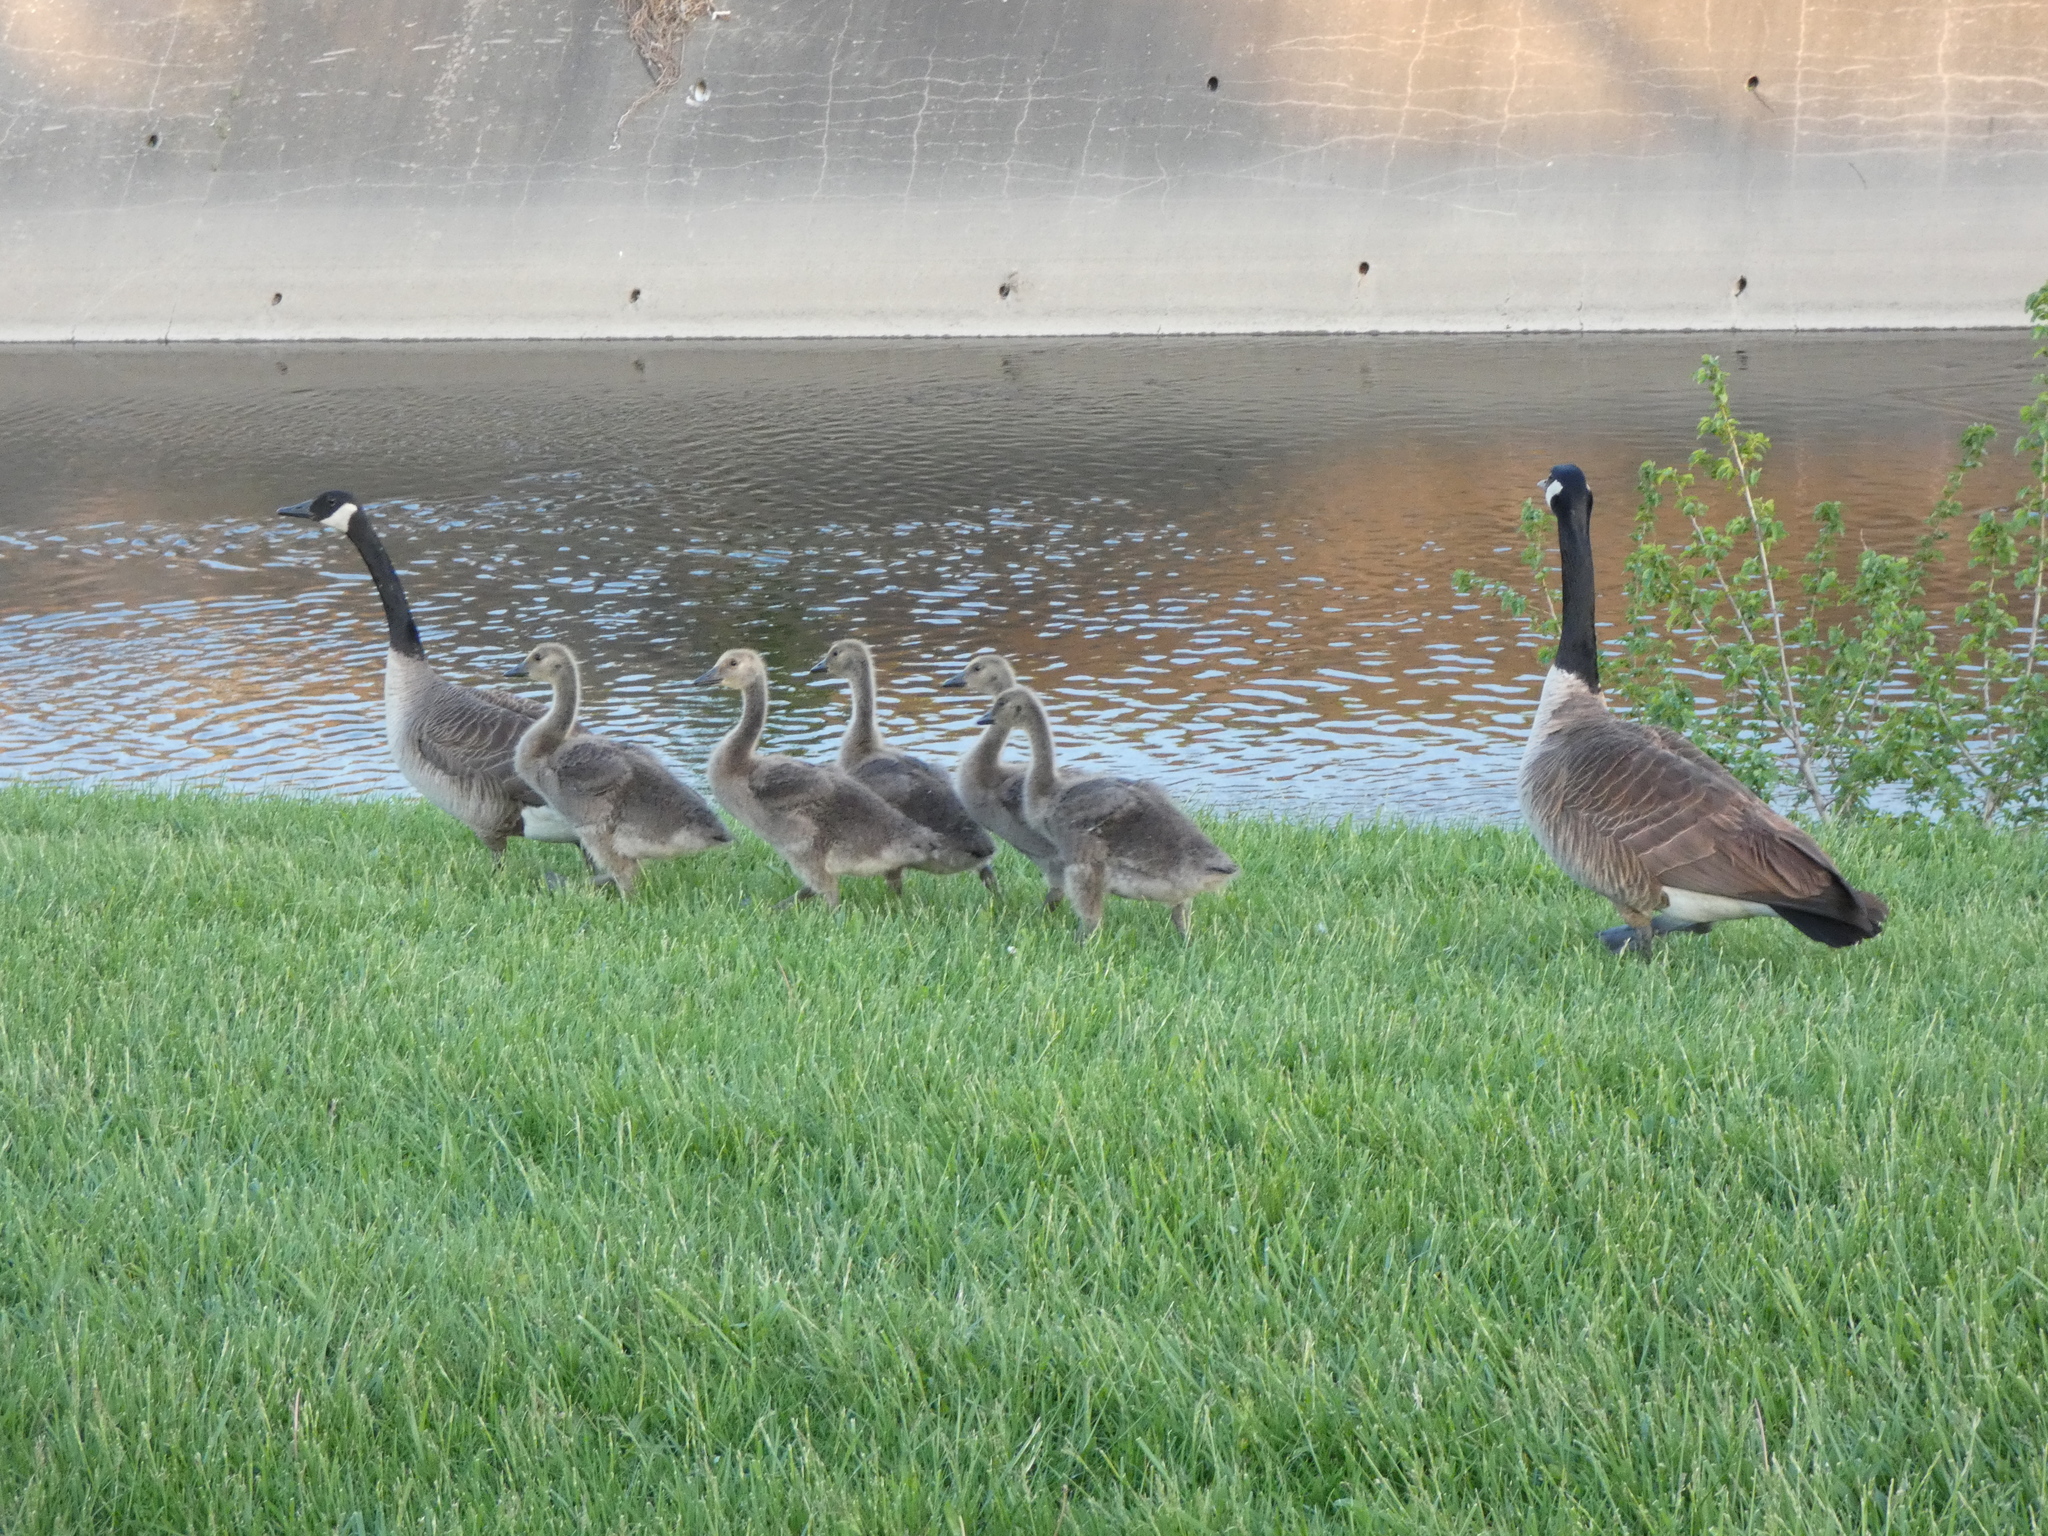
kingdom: Animalia
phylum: Chordata
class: Aves
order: Anseriformes
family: Anatidae
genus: Branta
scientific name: Branta canadensis
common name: Canada goose
